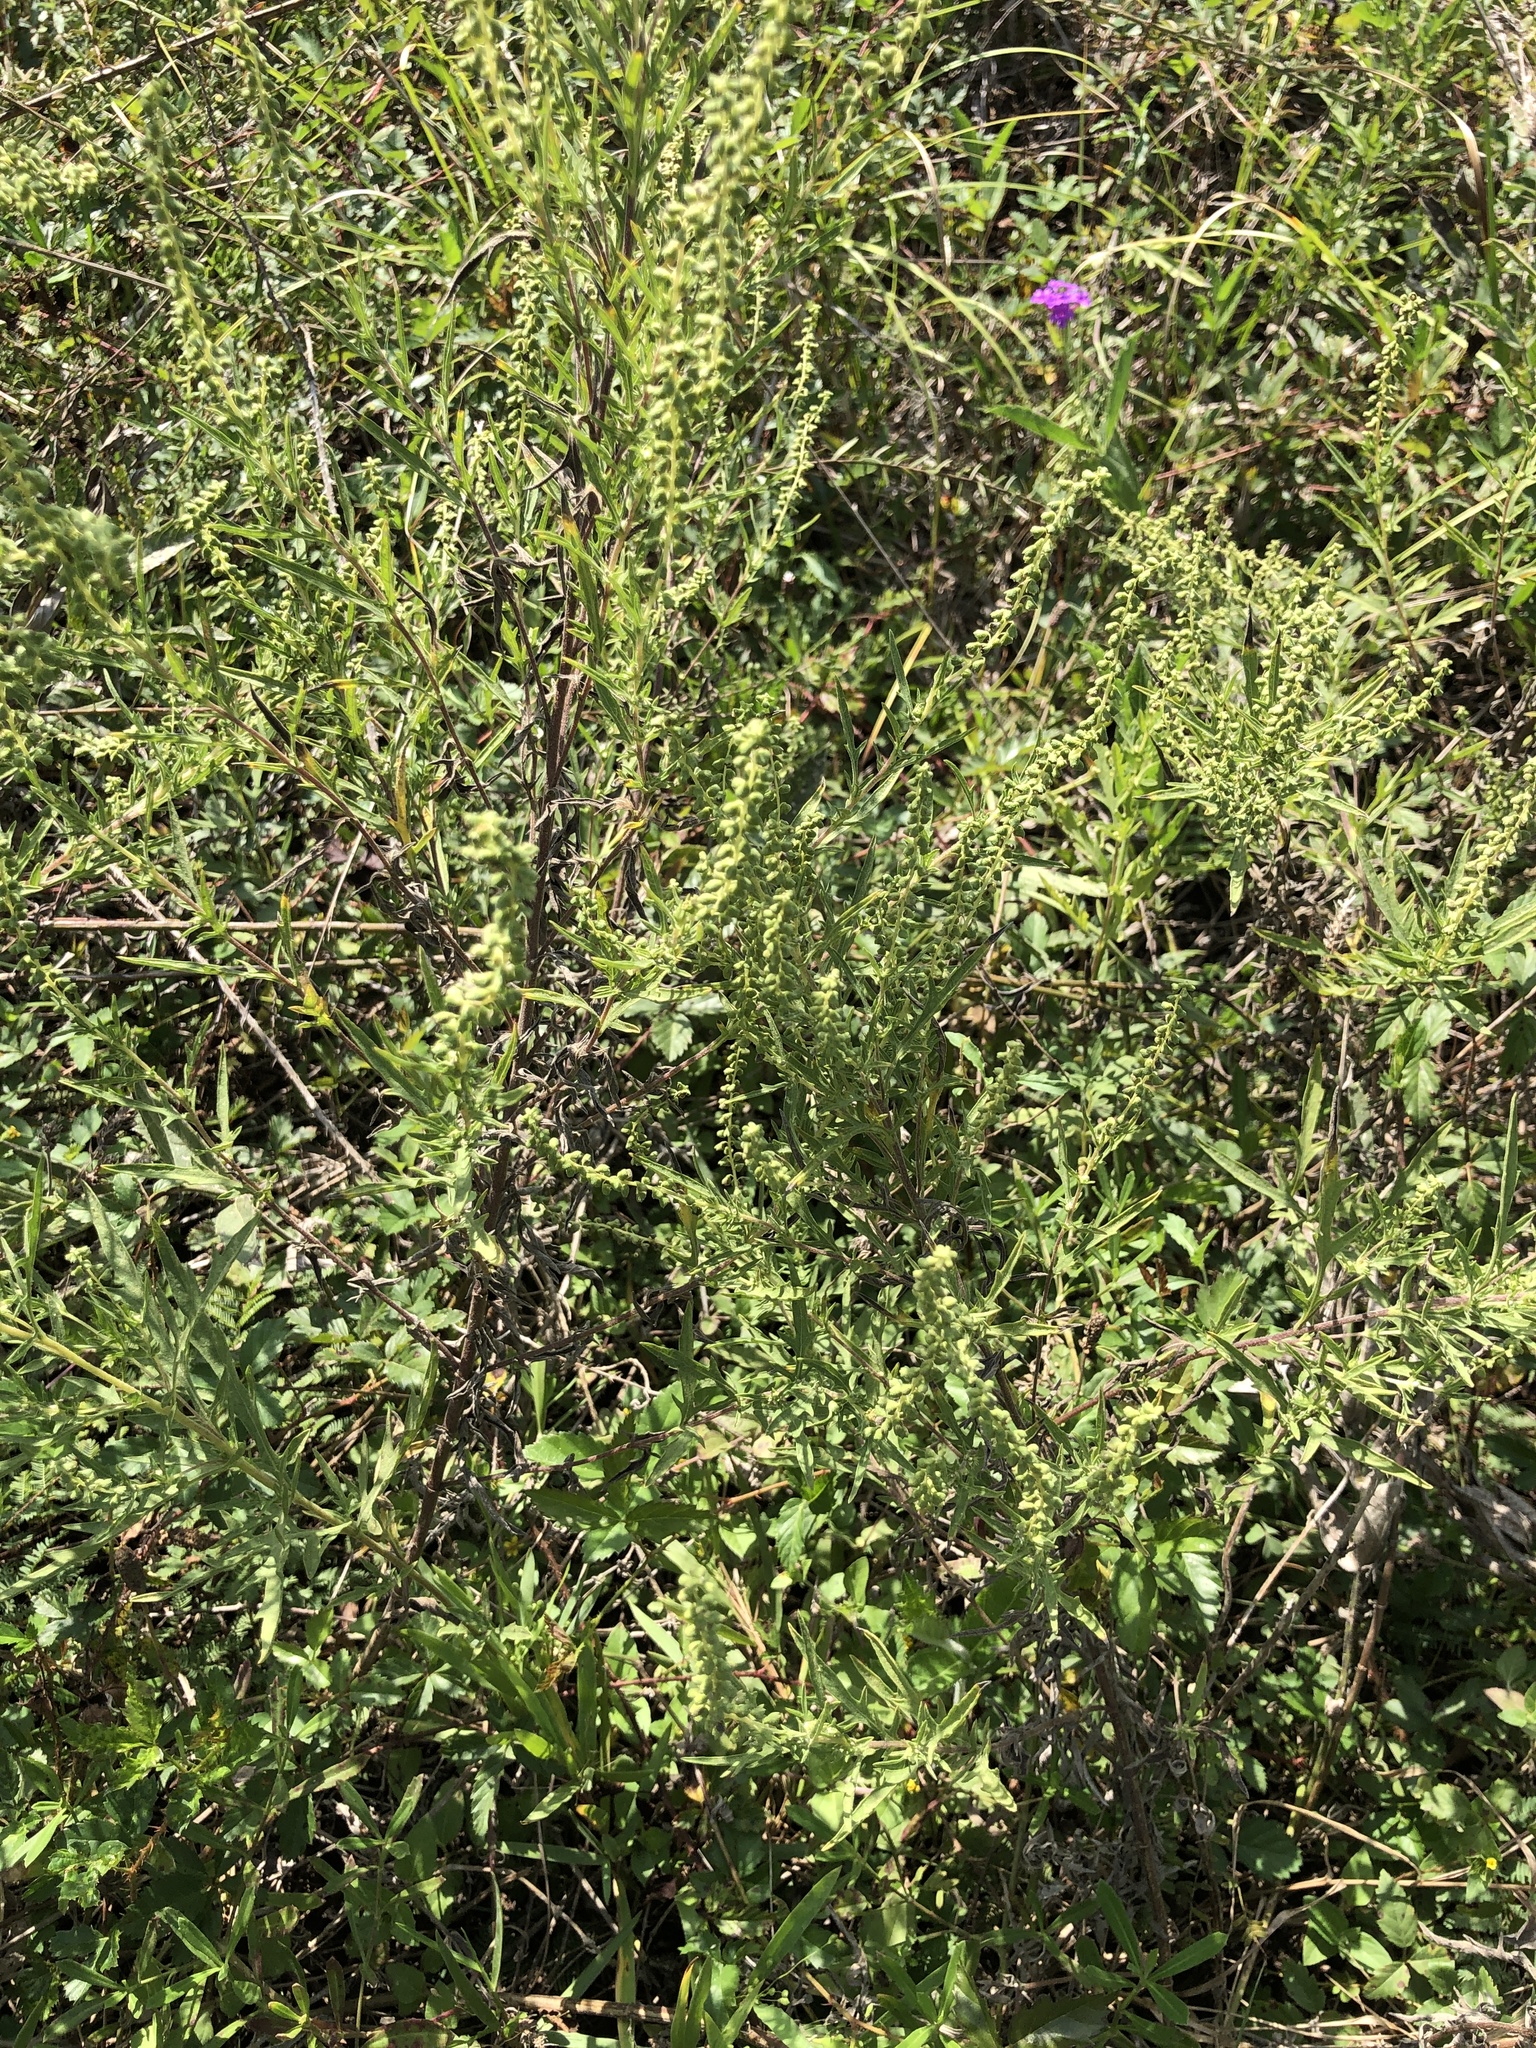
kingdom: Plantae
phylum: Tracheophyta
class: Magnoliopsida
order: Asterales
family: Asteraceae
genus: Ambrosia
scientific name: Ambrosia psilostachya
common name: Perennial ragweed
